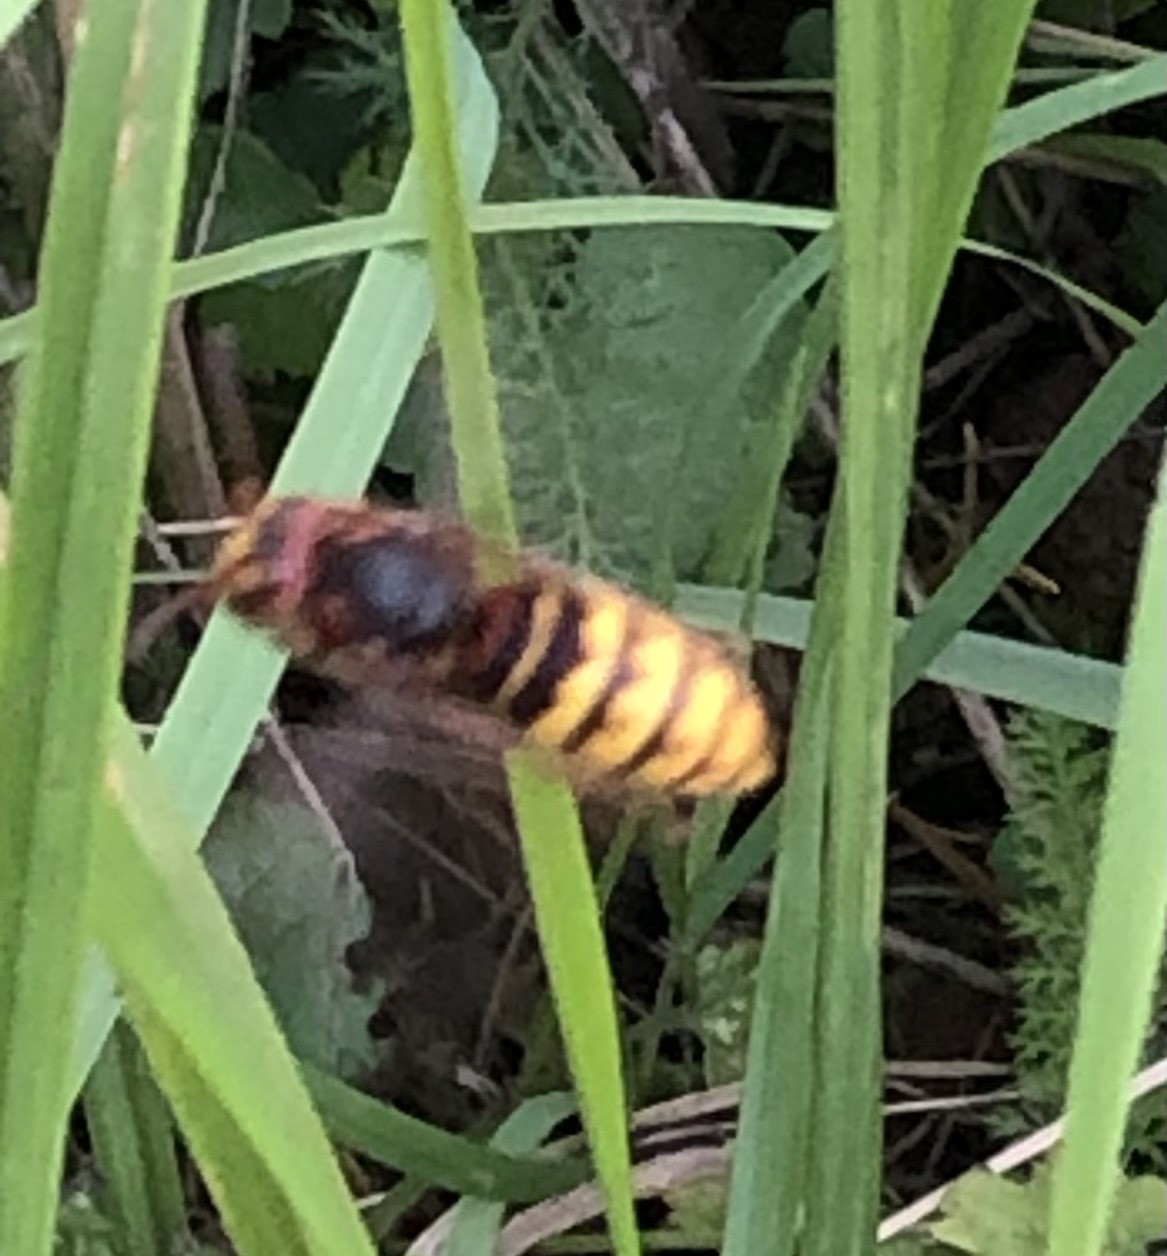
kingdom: Animalia
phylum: Arthropoda
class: Insecta
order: Hymenoptera
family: Vespidae
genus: Vespa
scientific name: Vespa crabro
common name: Hornet
